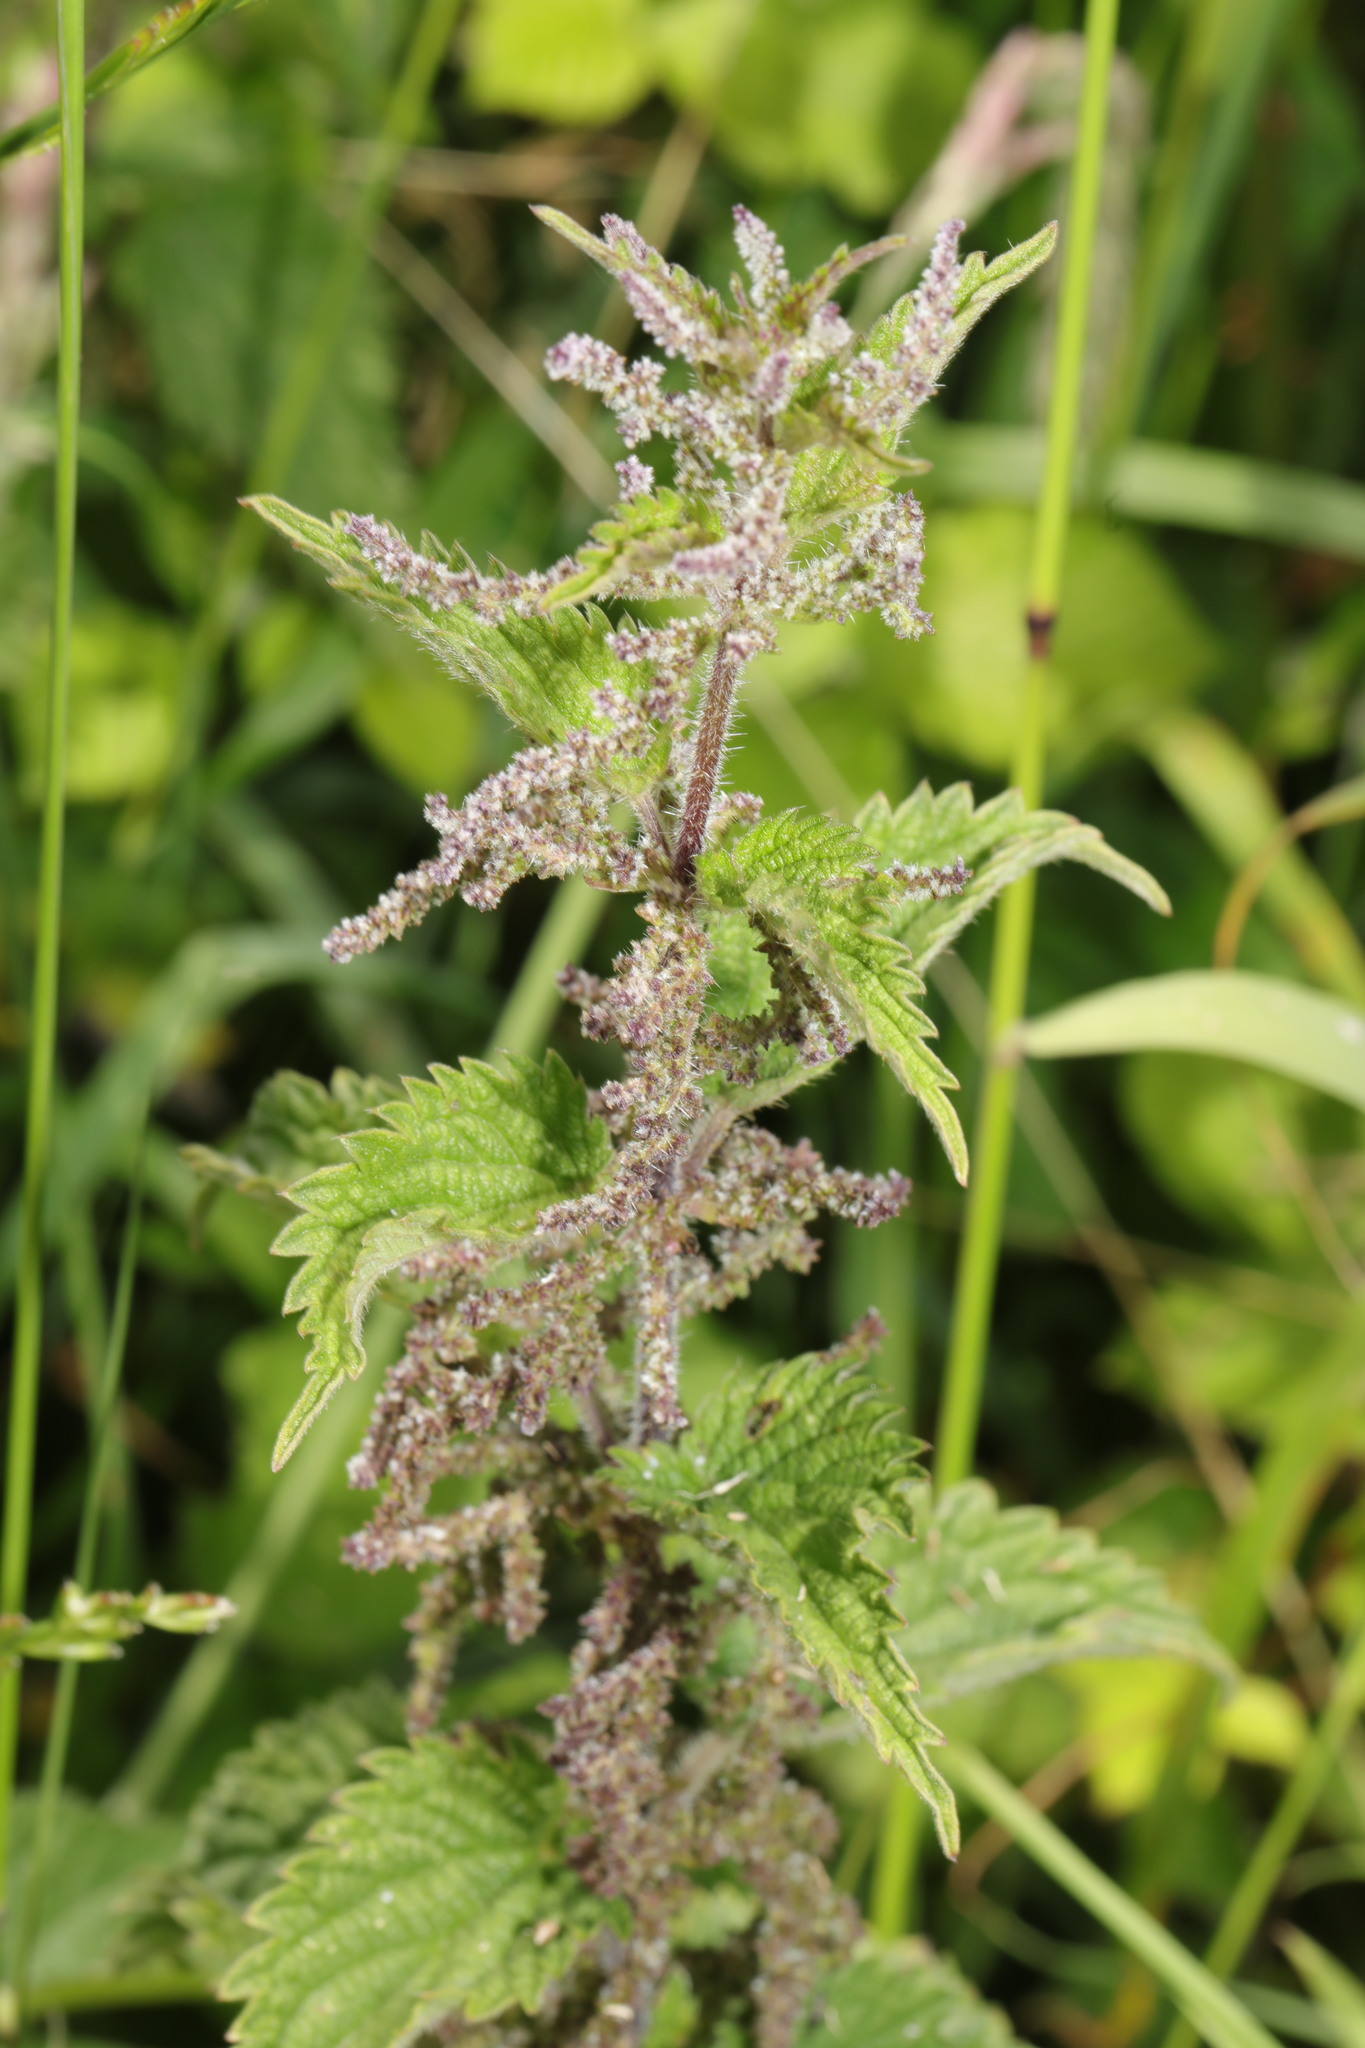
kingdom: Plantae
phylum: Tracheophyta
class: Magnoliopsida
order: Rosales
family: Urticaceae
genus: Urtica
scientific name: Urtica dioica
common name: Common nettle
